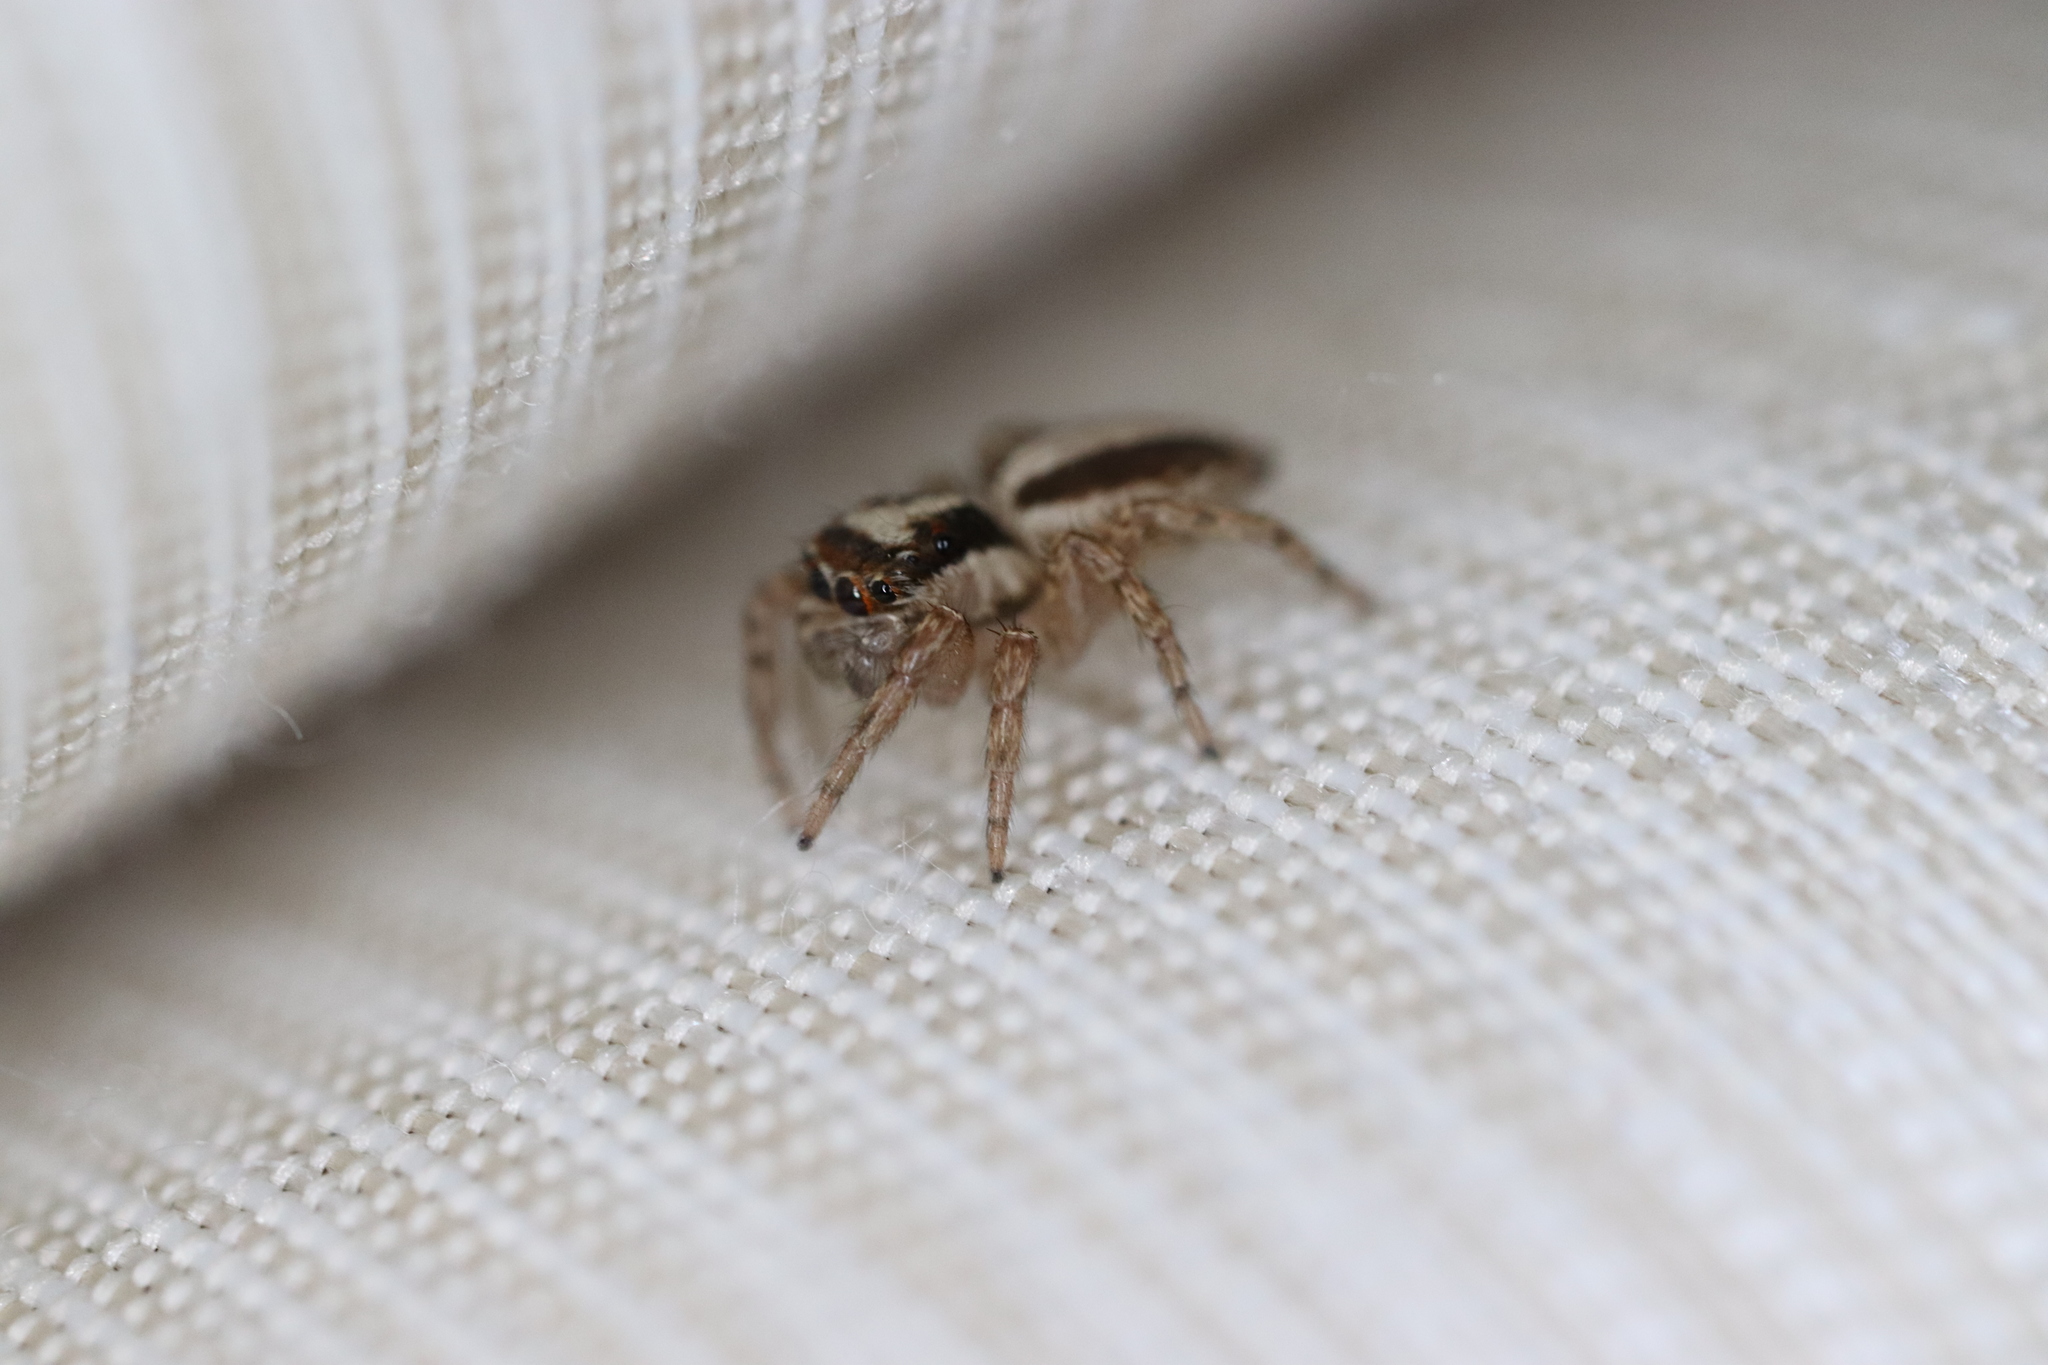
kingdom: Animalia
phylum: Arthropoda
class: Arachnida
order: Araneae
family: Salticidae
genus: Plexippus
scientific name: Plexippus setipes
